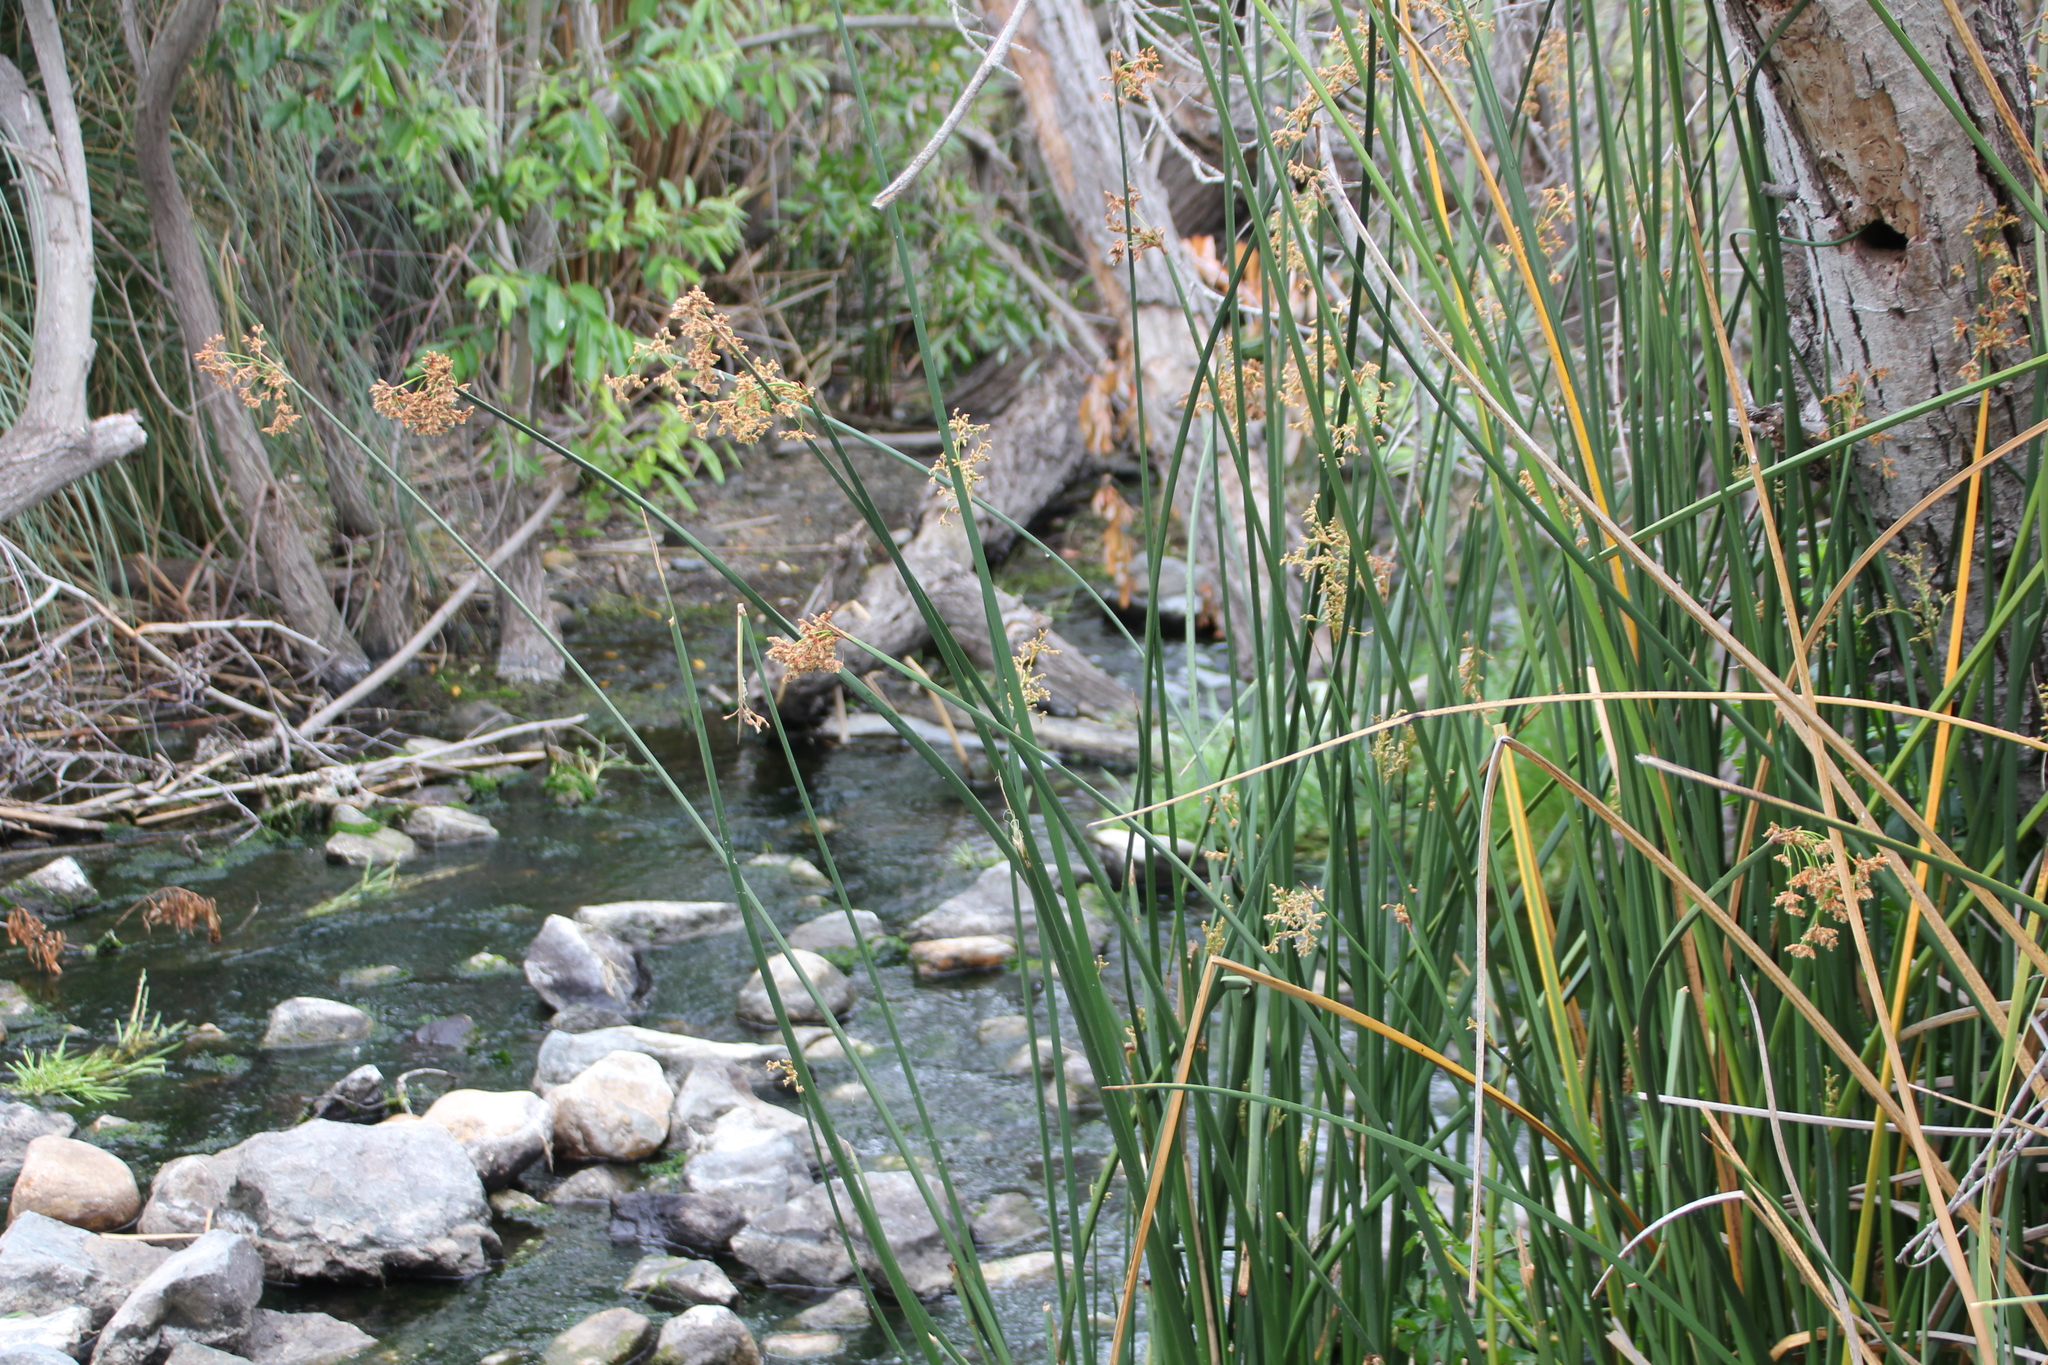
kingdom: Plantae
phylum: Tracheophyta
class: Liliopsida
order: Poales
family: Cyperaceae
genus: Schoenoplectus
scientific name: Schoenoplectus californicus
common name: California bulrush
